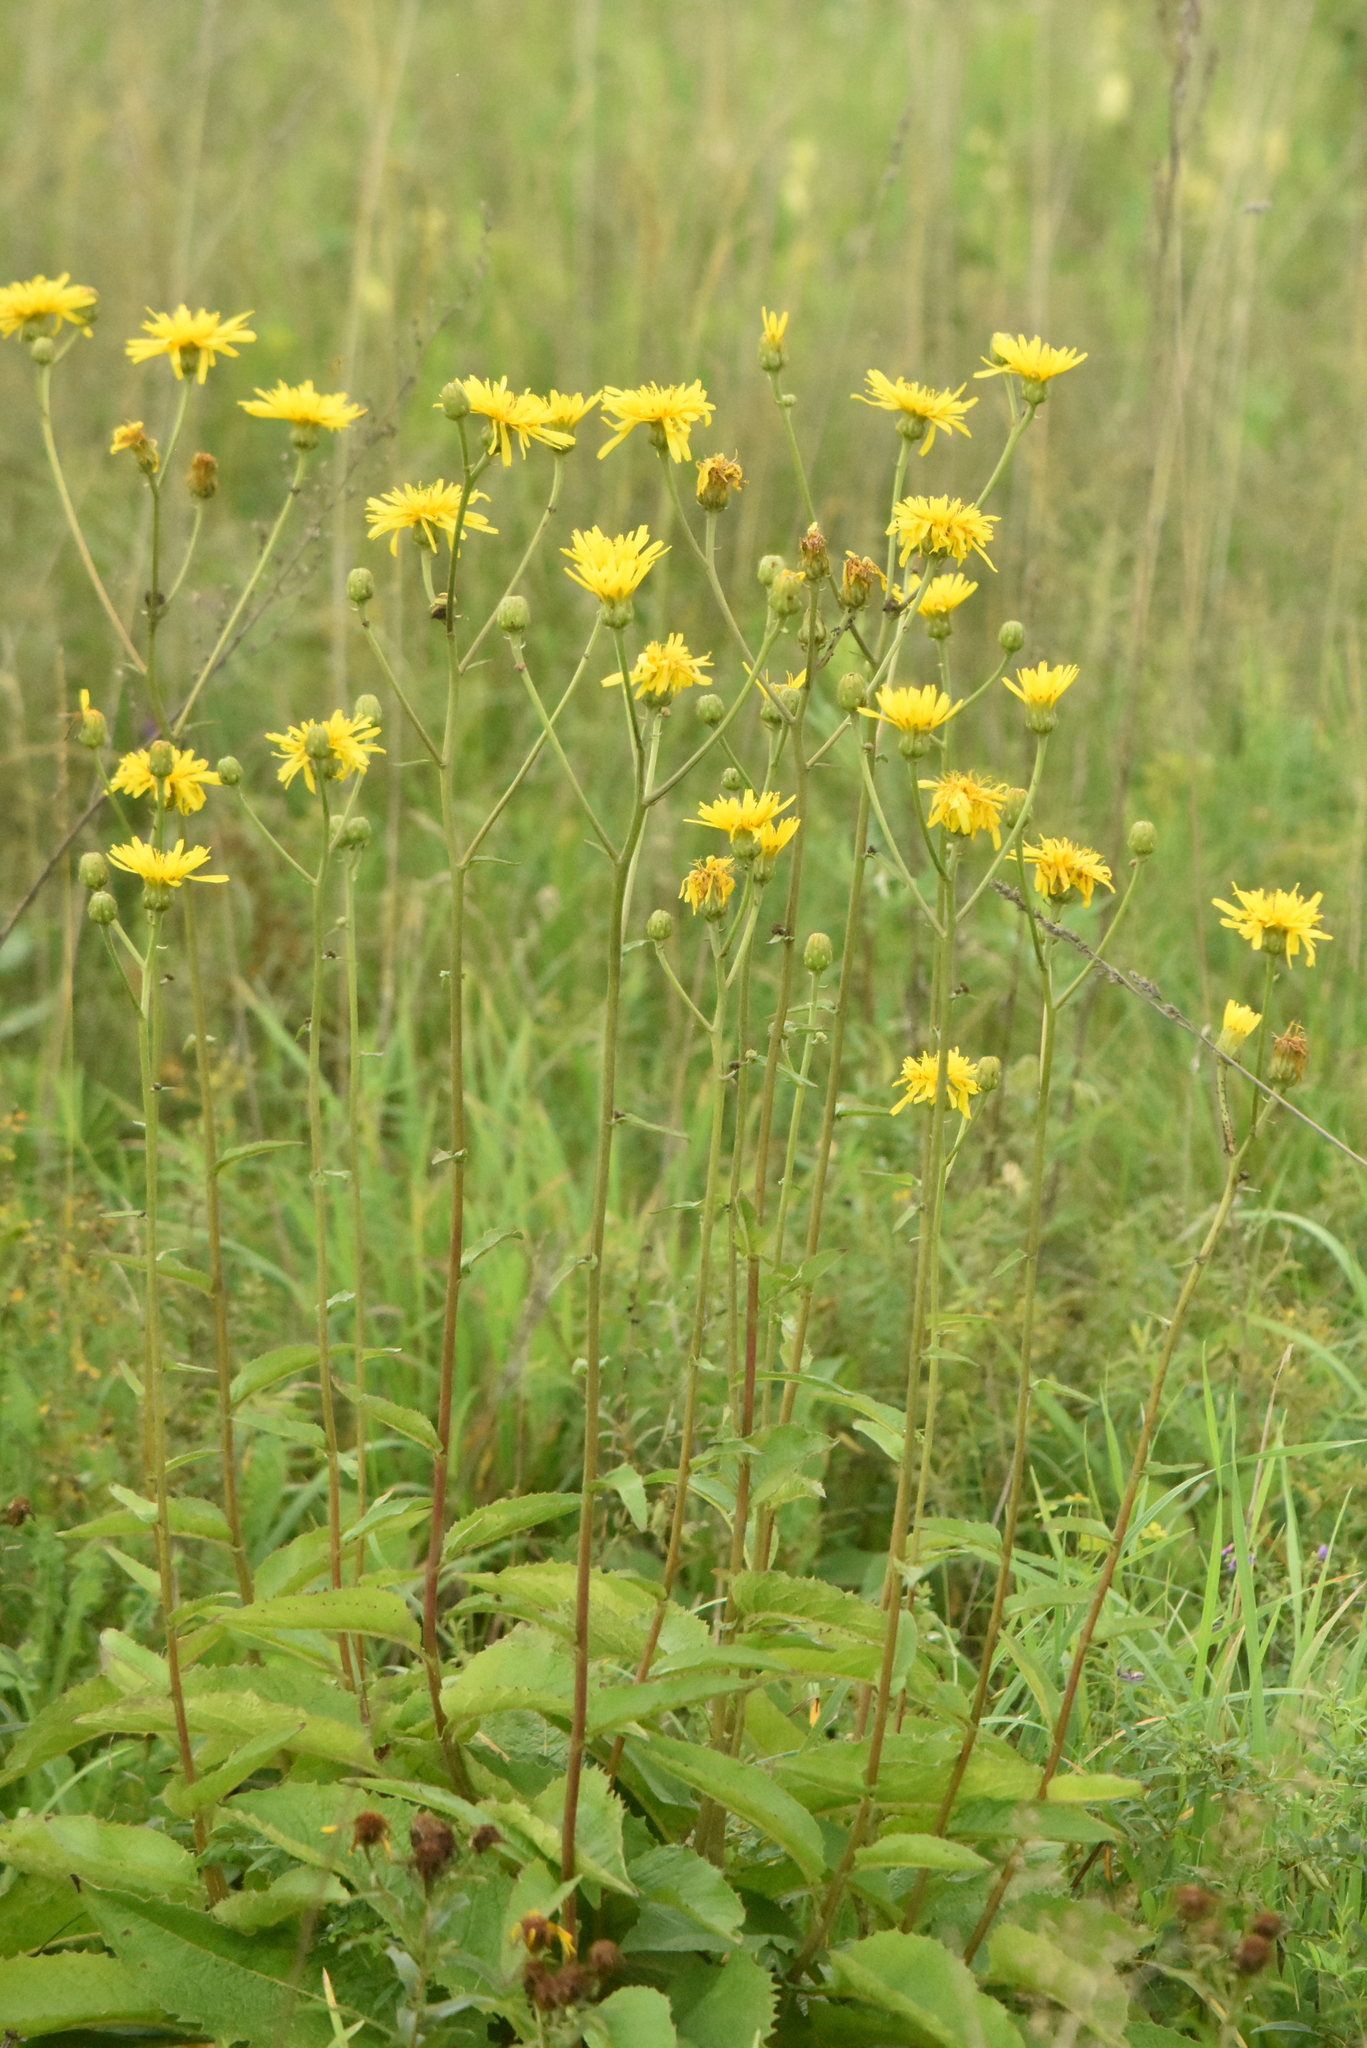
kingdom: Plantae
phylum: Tracheophyta
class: Magnoliopsida
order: Asterales
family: Asteraceae
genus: Crepis
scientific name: Crepis sibirica
